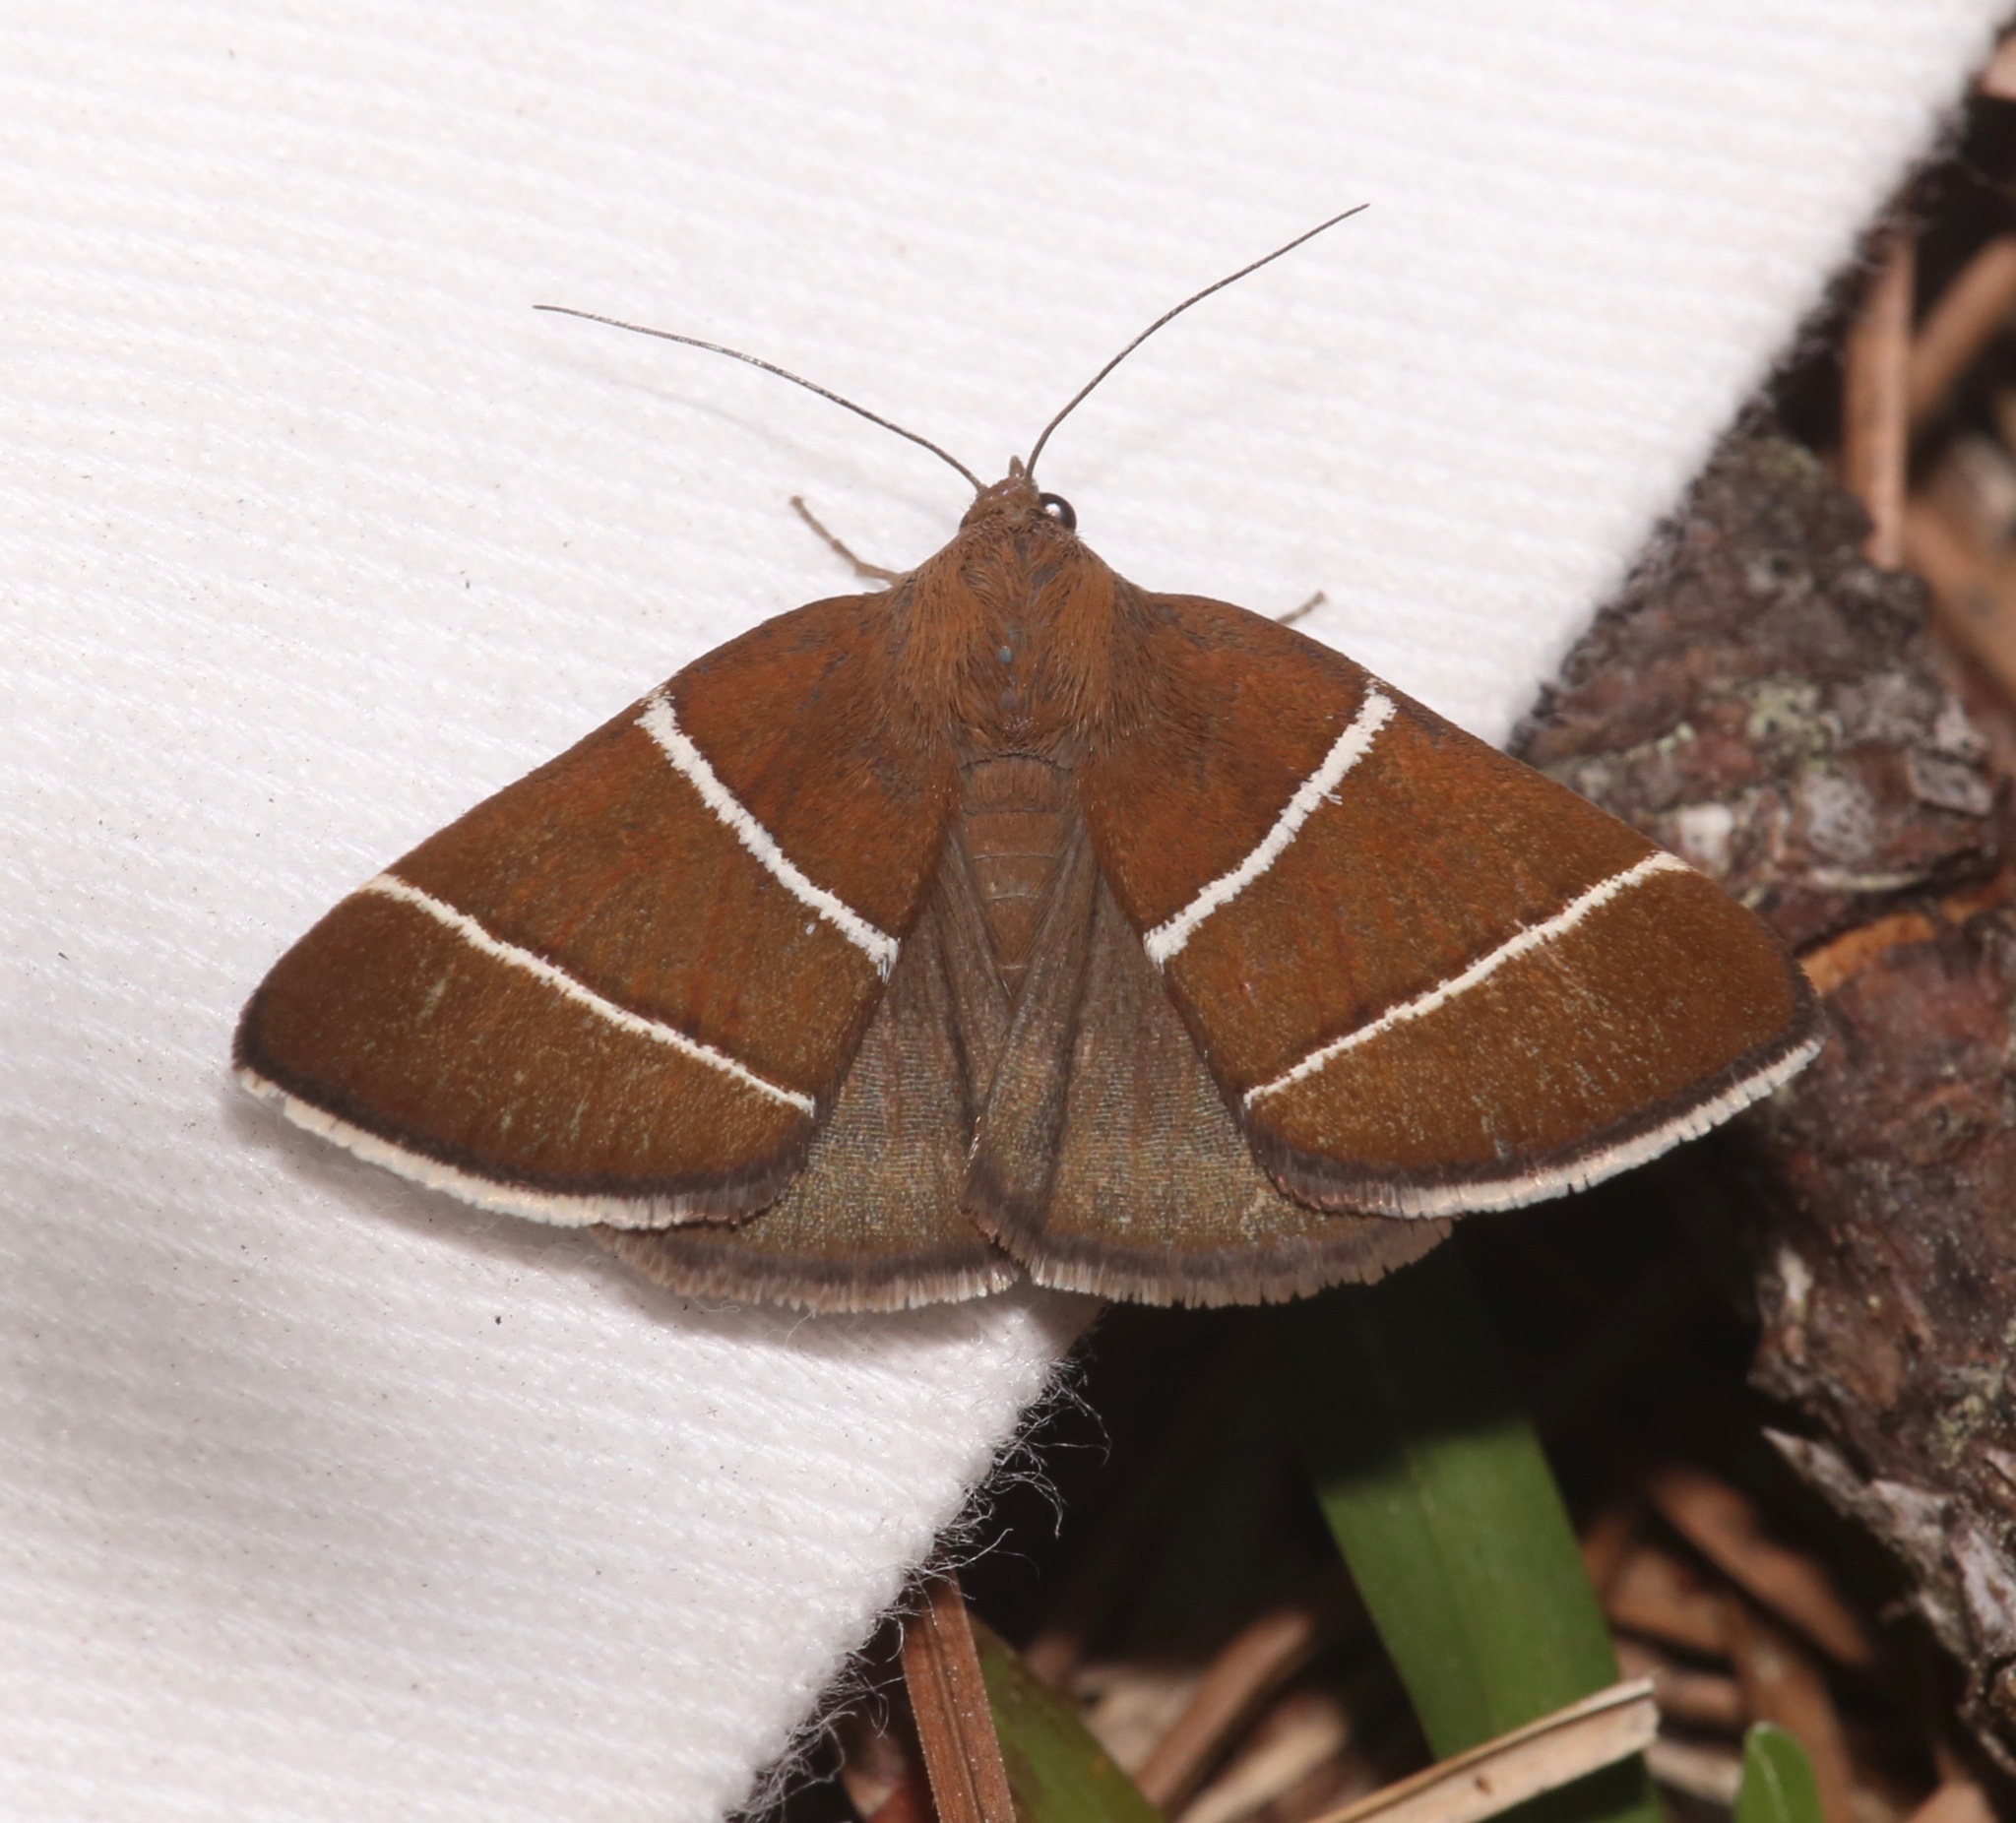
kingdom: Animalia
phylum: Arthropoda
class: Insecta
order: Lepidoptera
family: Erebidae
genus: Argyrostrotis
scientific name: Argyrostrotis quadrifilaris
